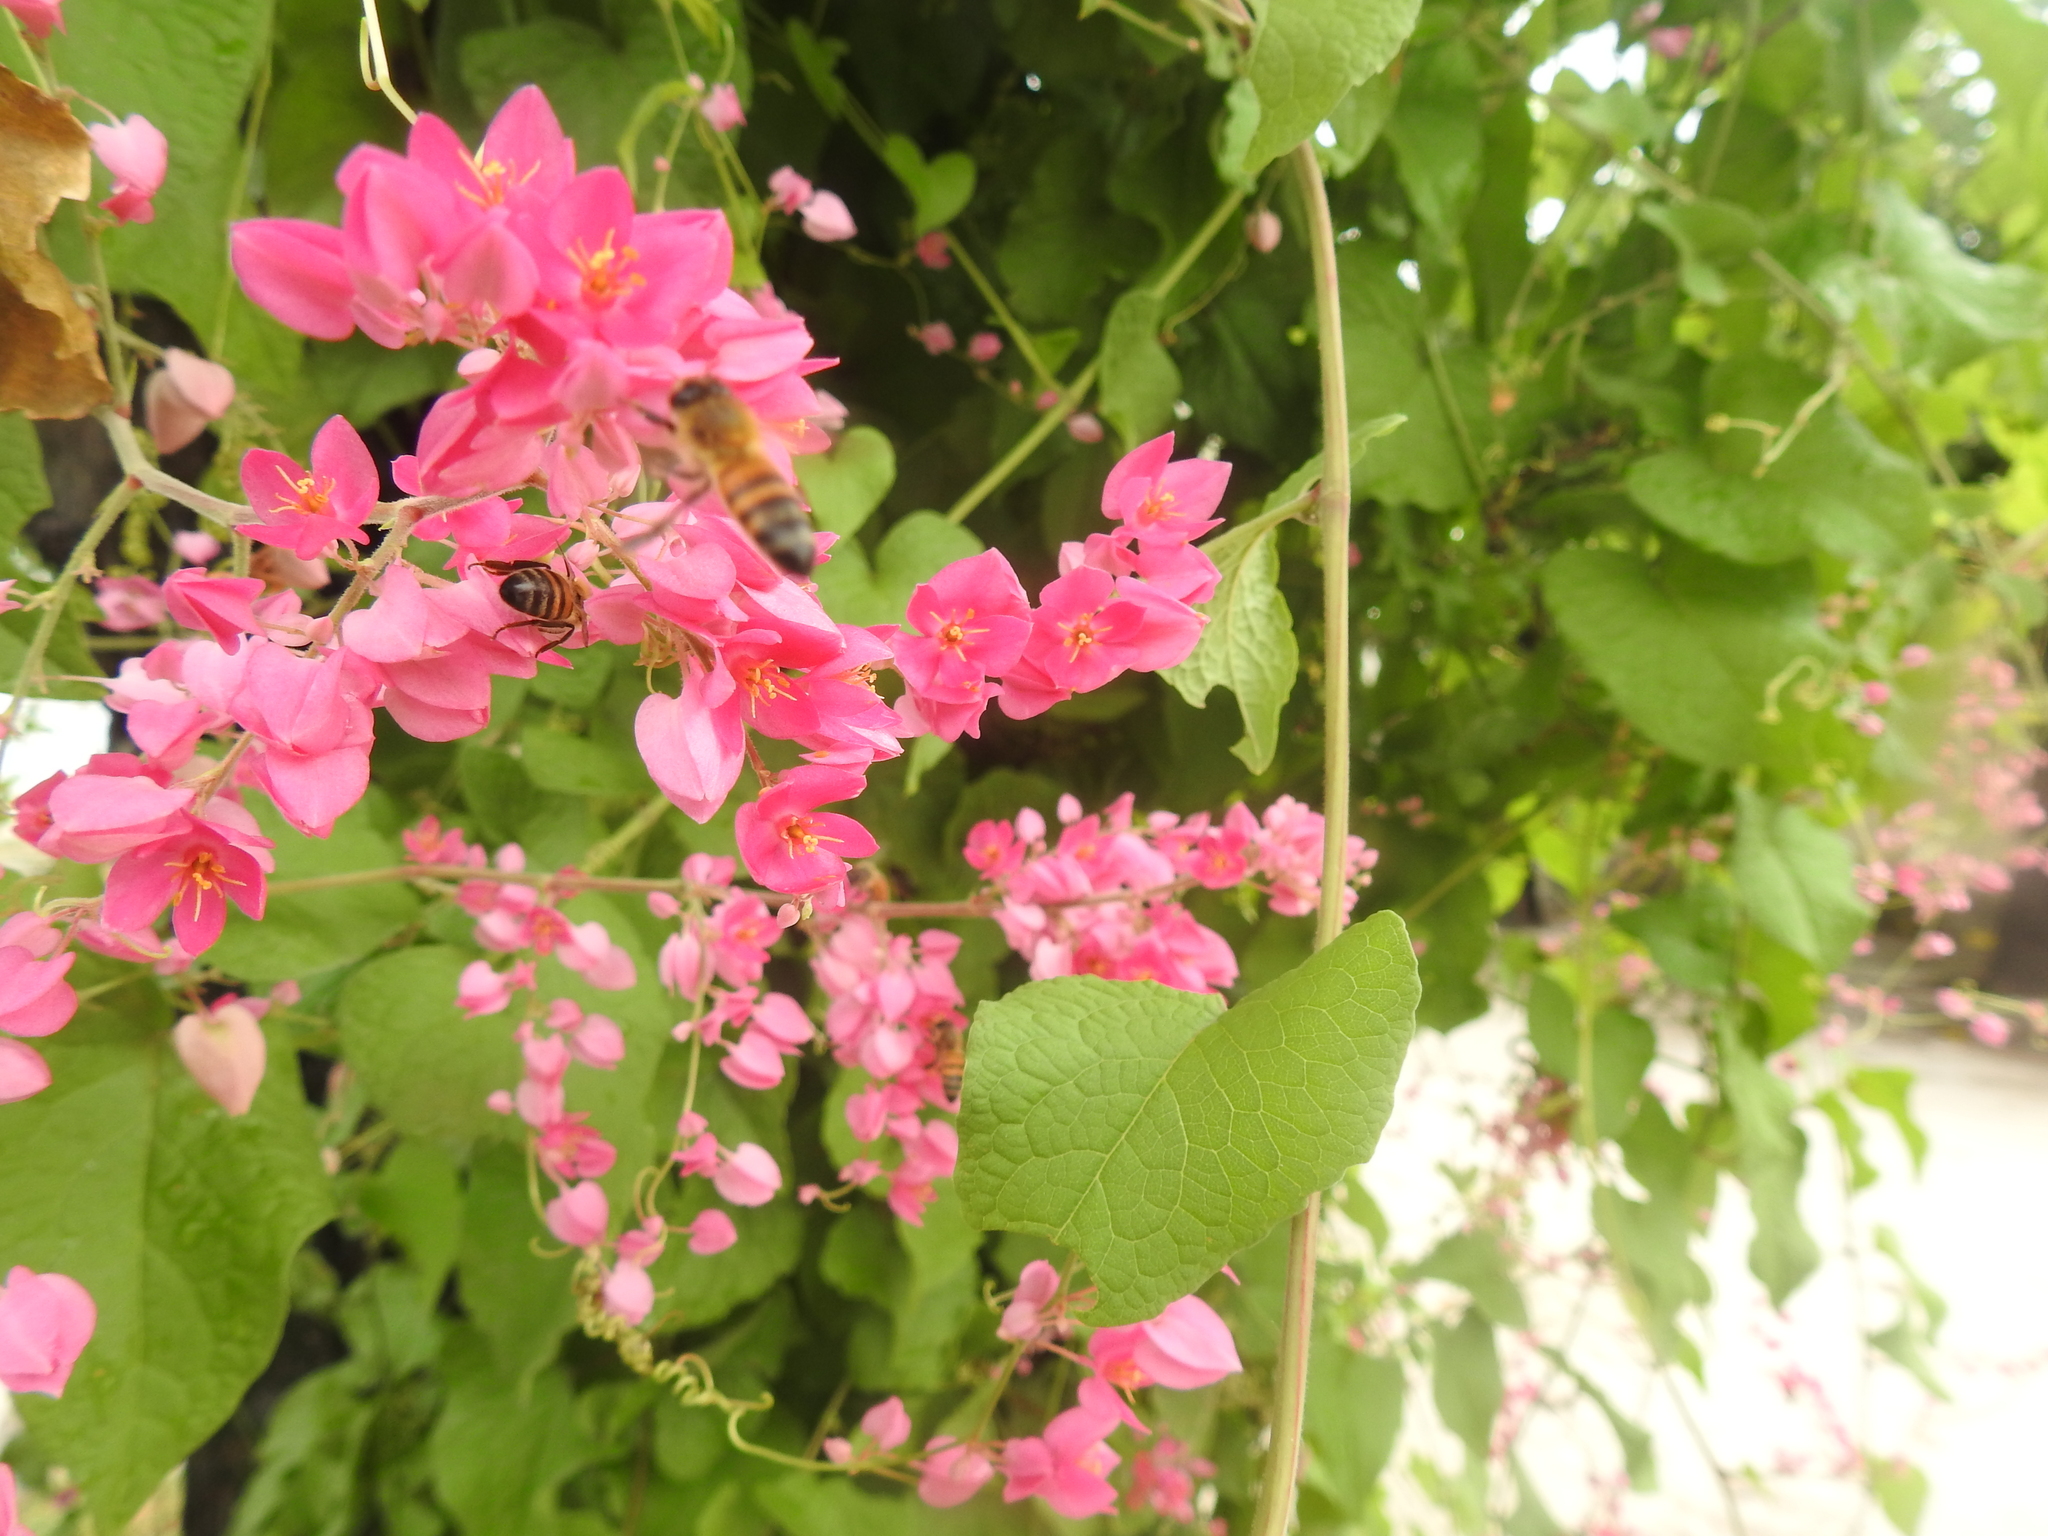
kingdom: Animalia
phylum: Arthropoda
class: Insecta
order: Hymenoptera
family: Apidae
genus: Apis
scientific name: Apis mellifera
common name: Honey bee
